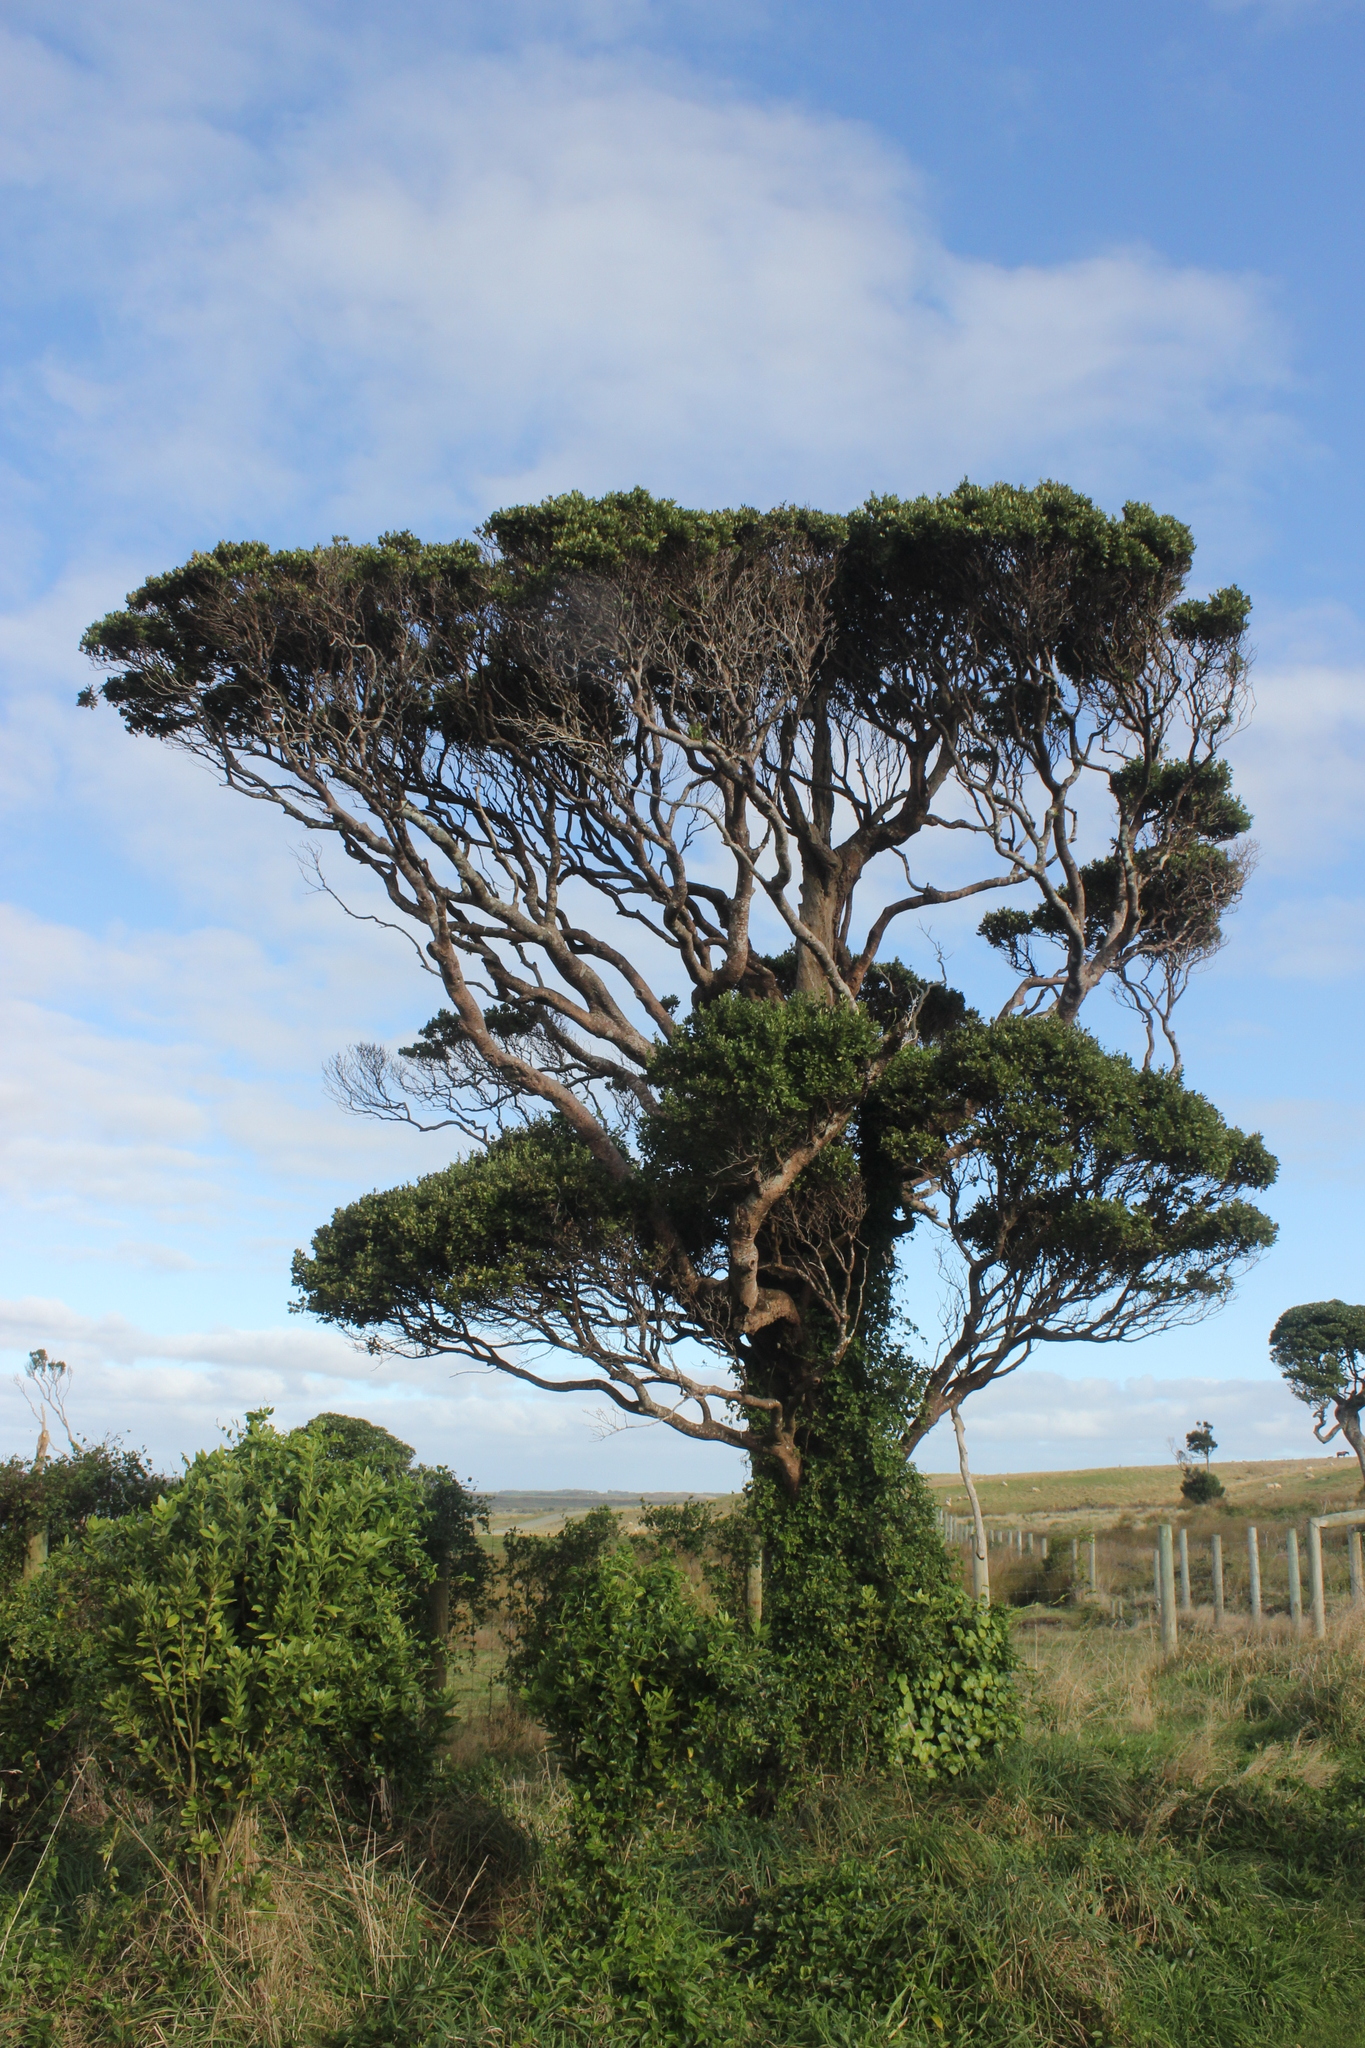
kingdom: Plantae
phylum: Tracheophyta
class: Magnoliopsida
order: Gentianales
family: Rubiaceae
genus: Coprosma
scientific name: Coprosma chathamica
